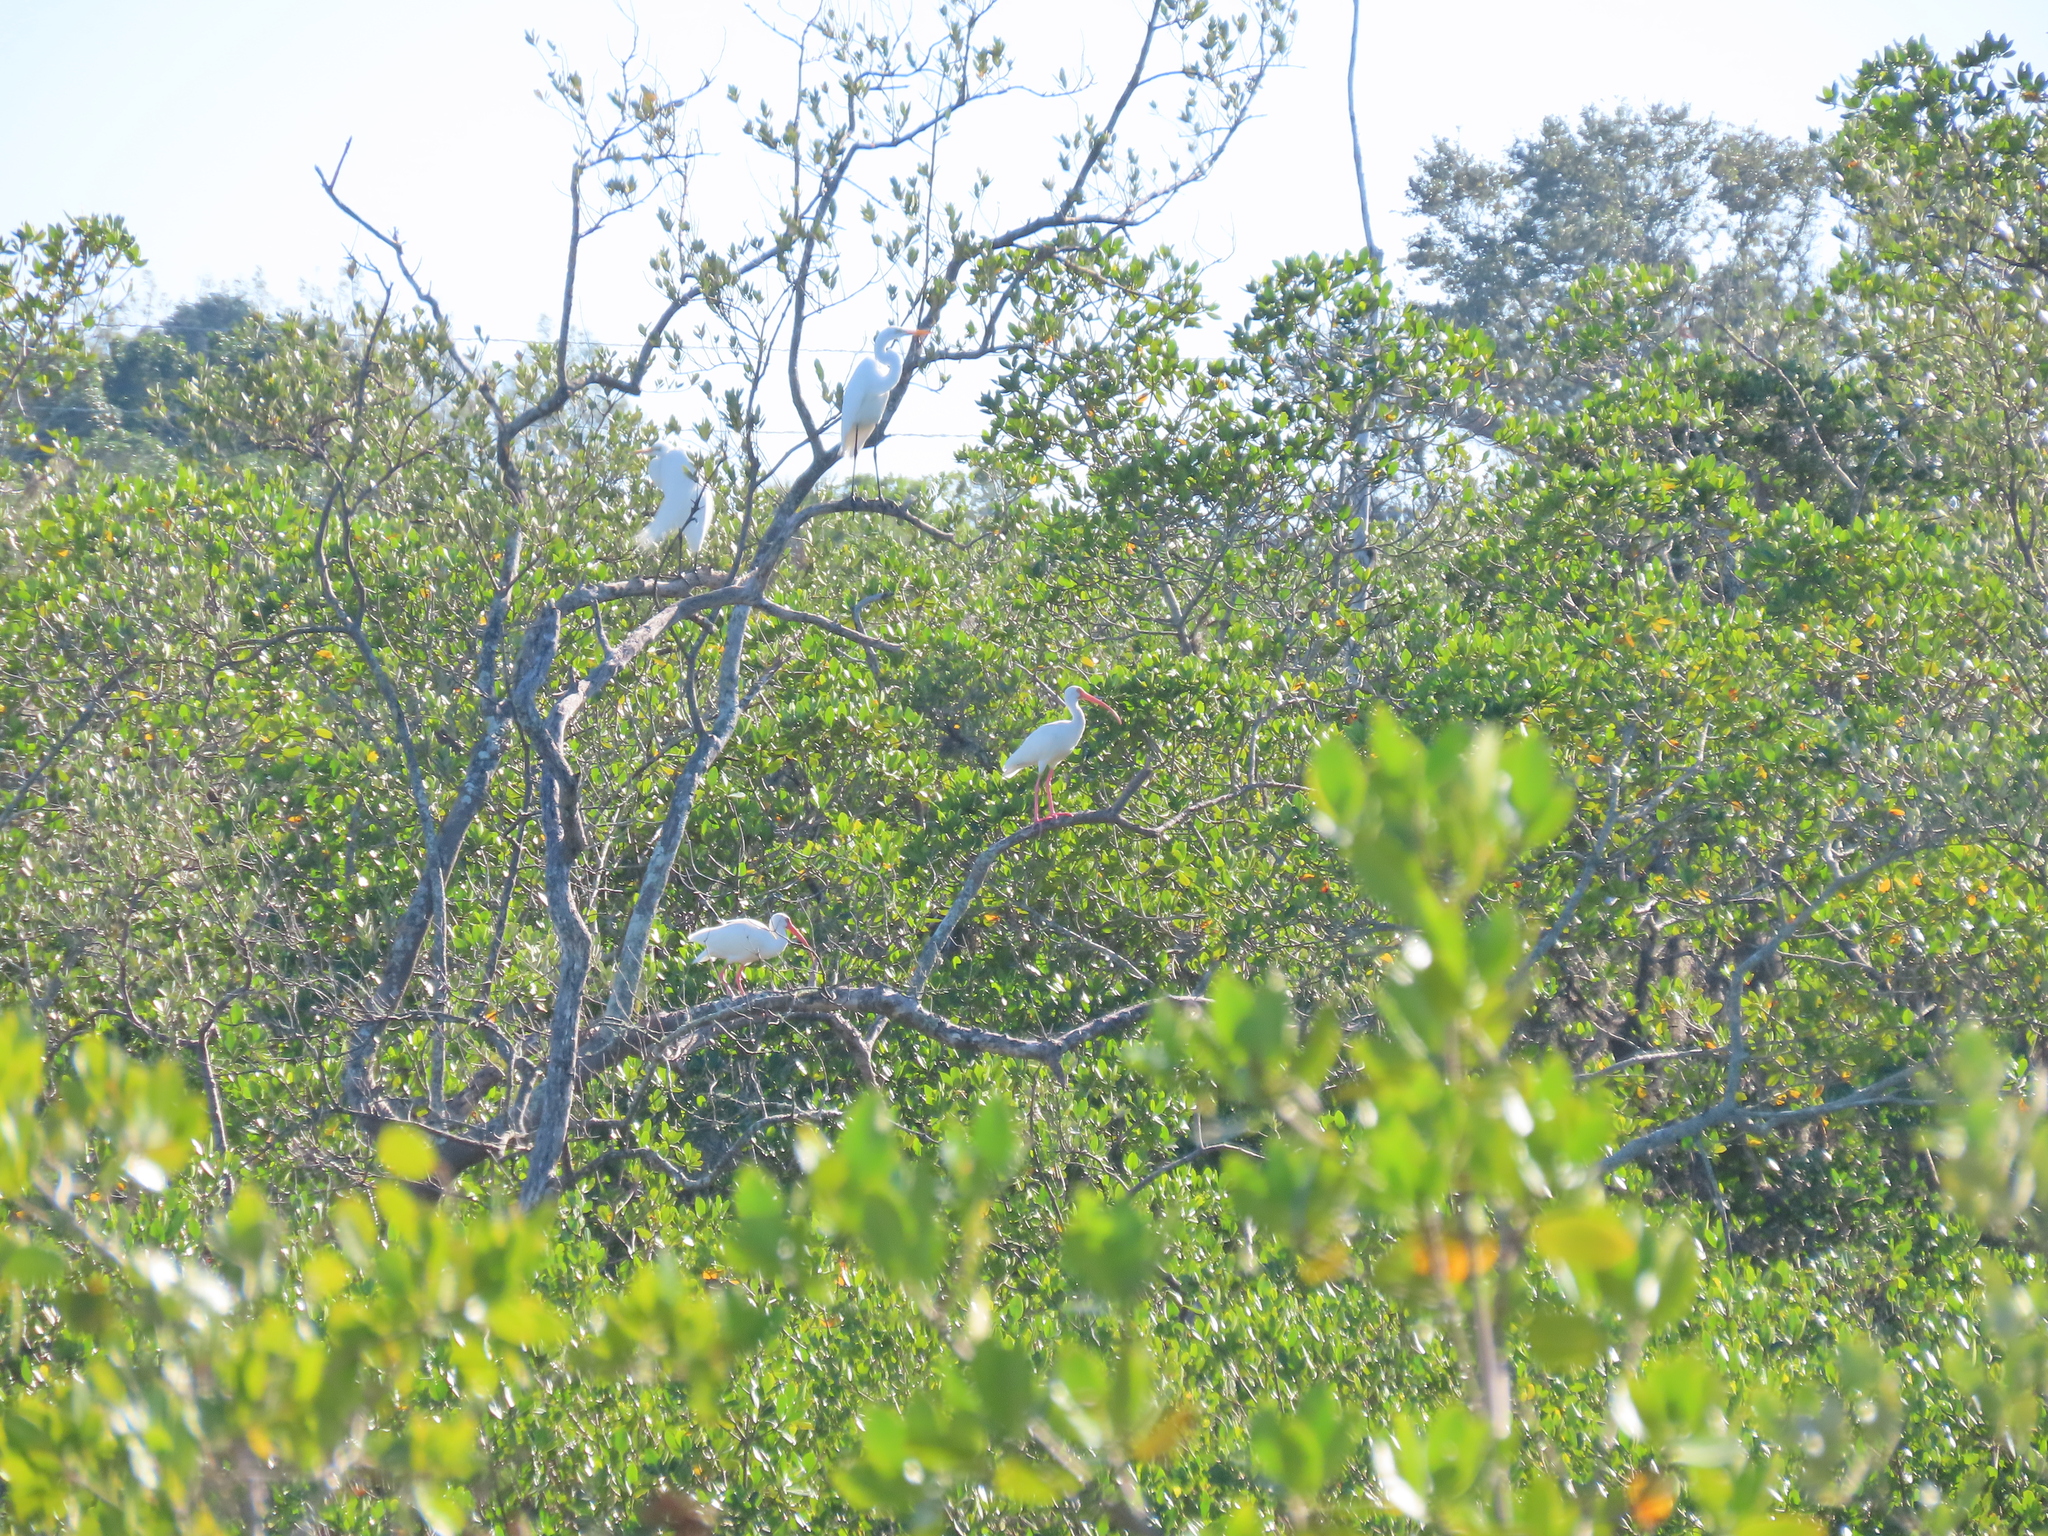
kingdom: Animalia
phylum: Chordata
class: Aves
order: Pelecaniformes
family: Threskiornithidae
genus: Eudocimus
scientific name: Eudocimus albus
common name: White ibis
